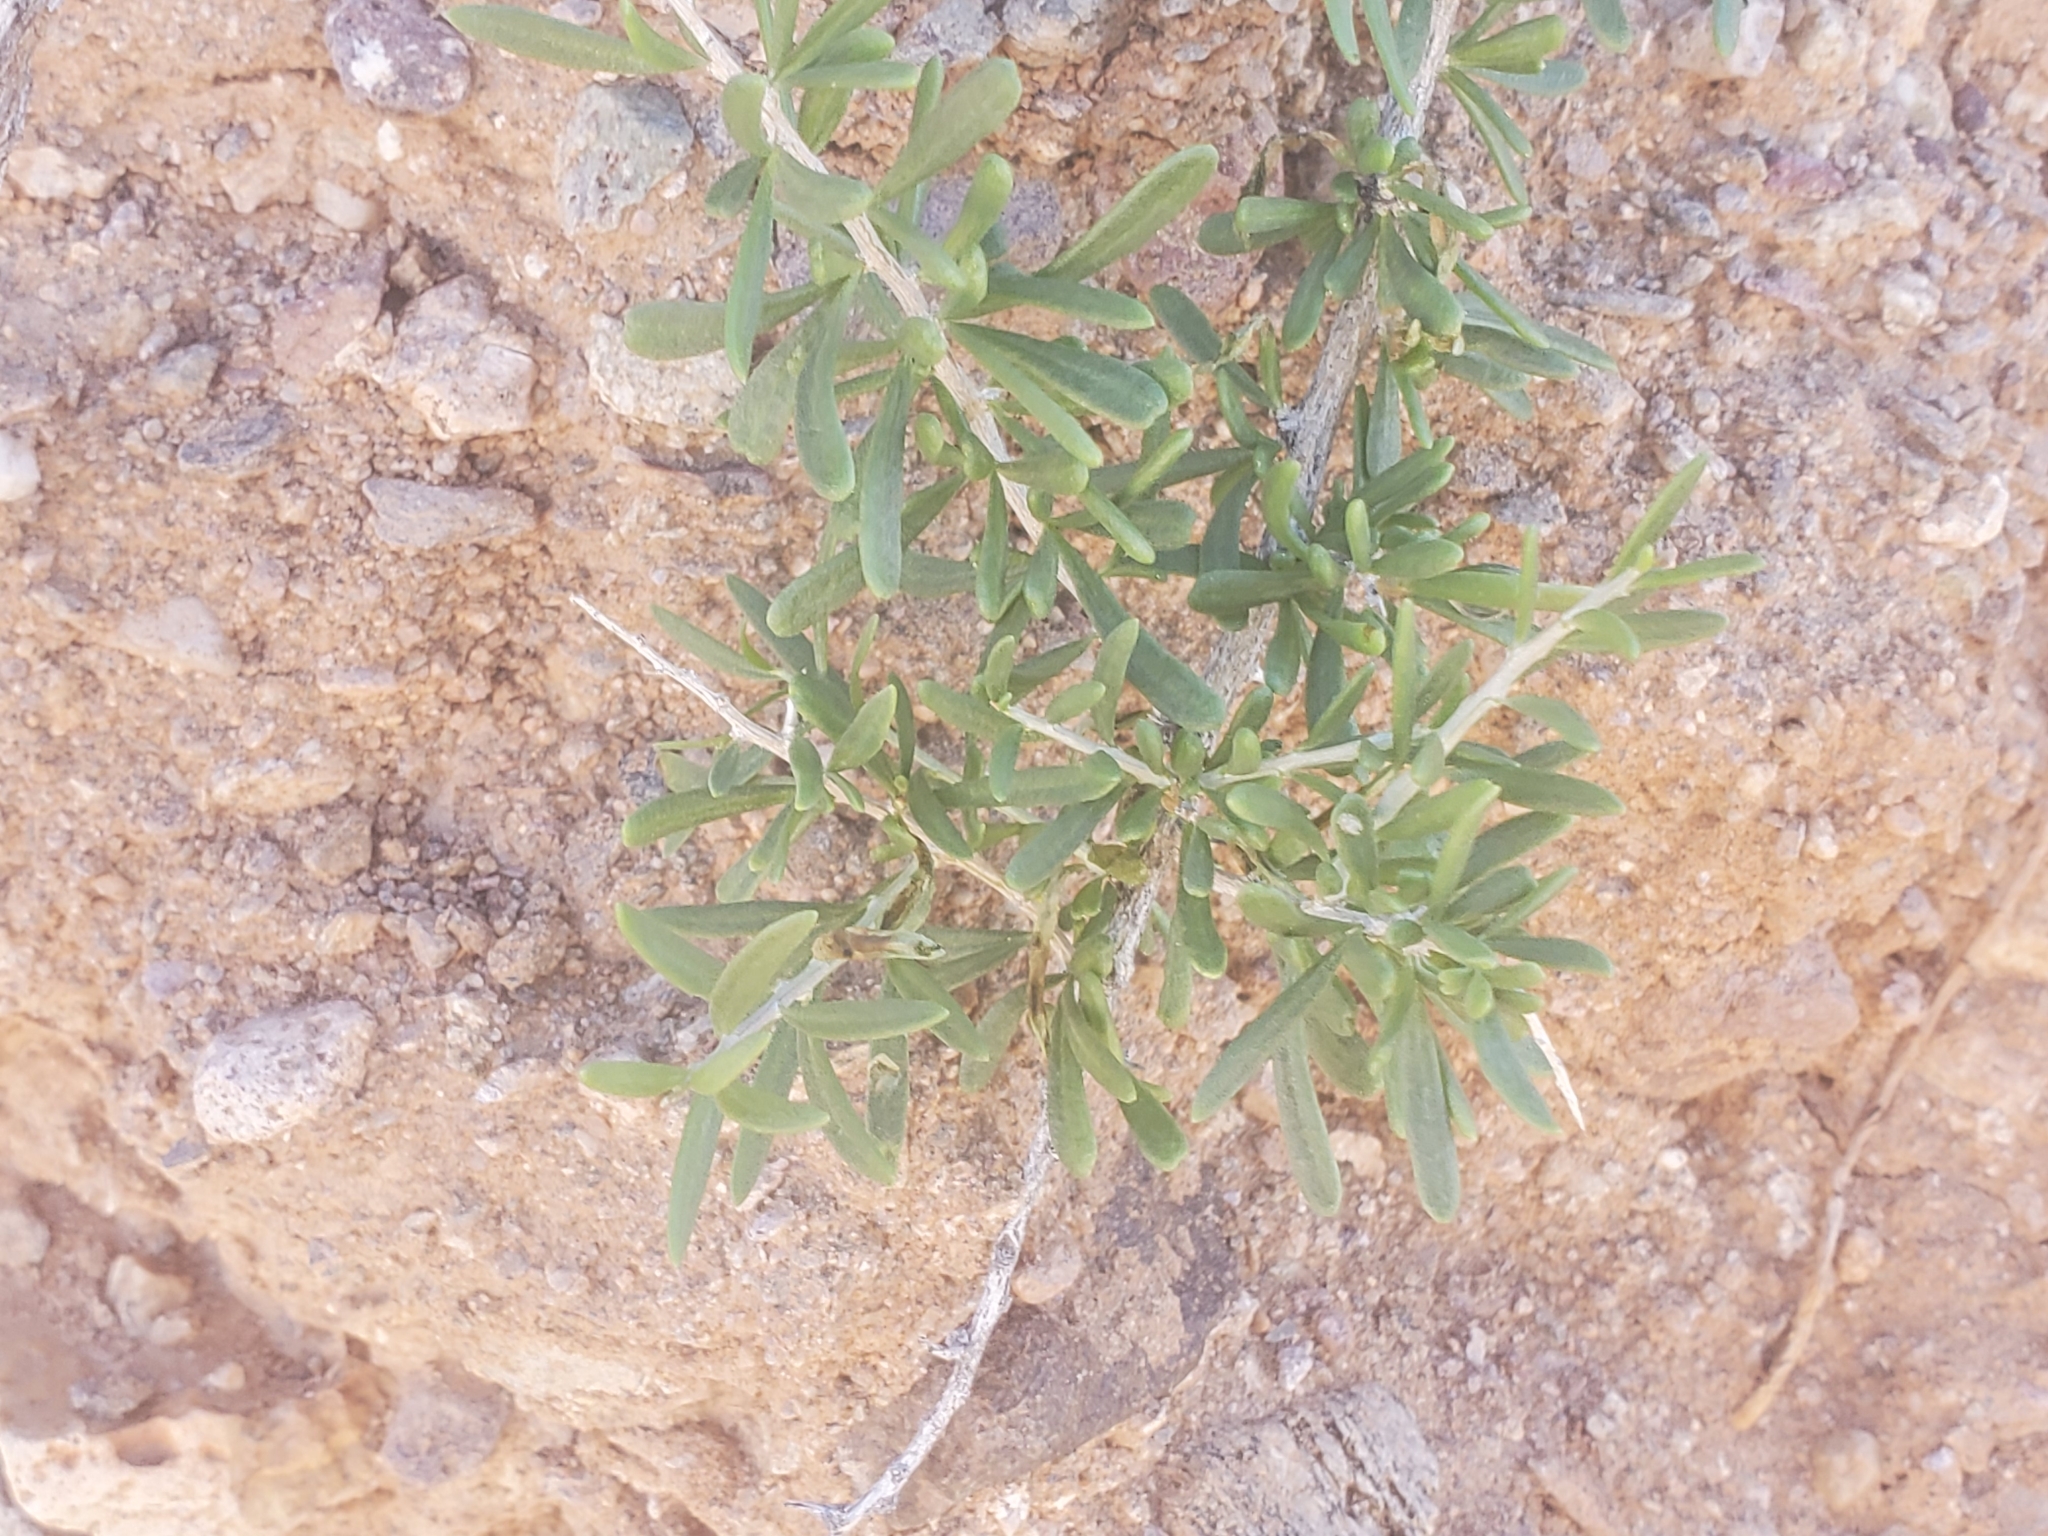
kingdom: Plantae
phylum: Tracheophyta
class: Magnoliopsida
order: Solanales
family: Solanaceae
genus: Lycium
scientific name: Lycium andersonii
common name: Water-jacket
